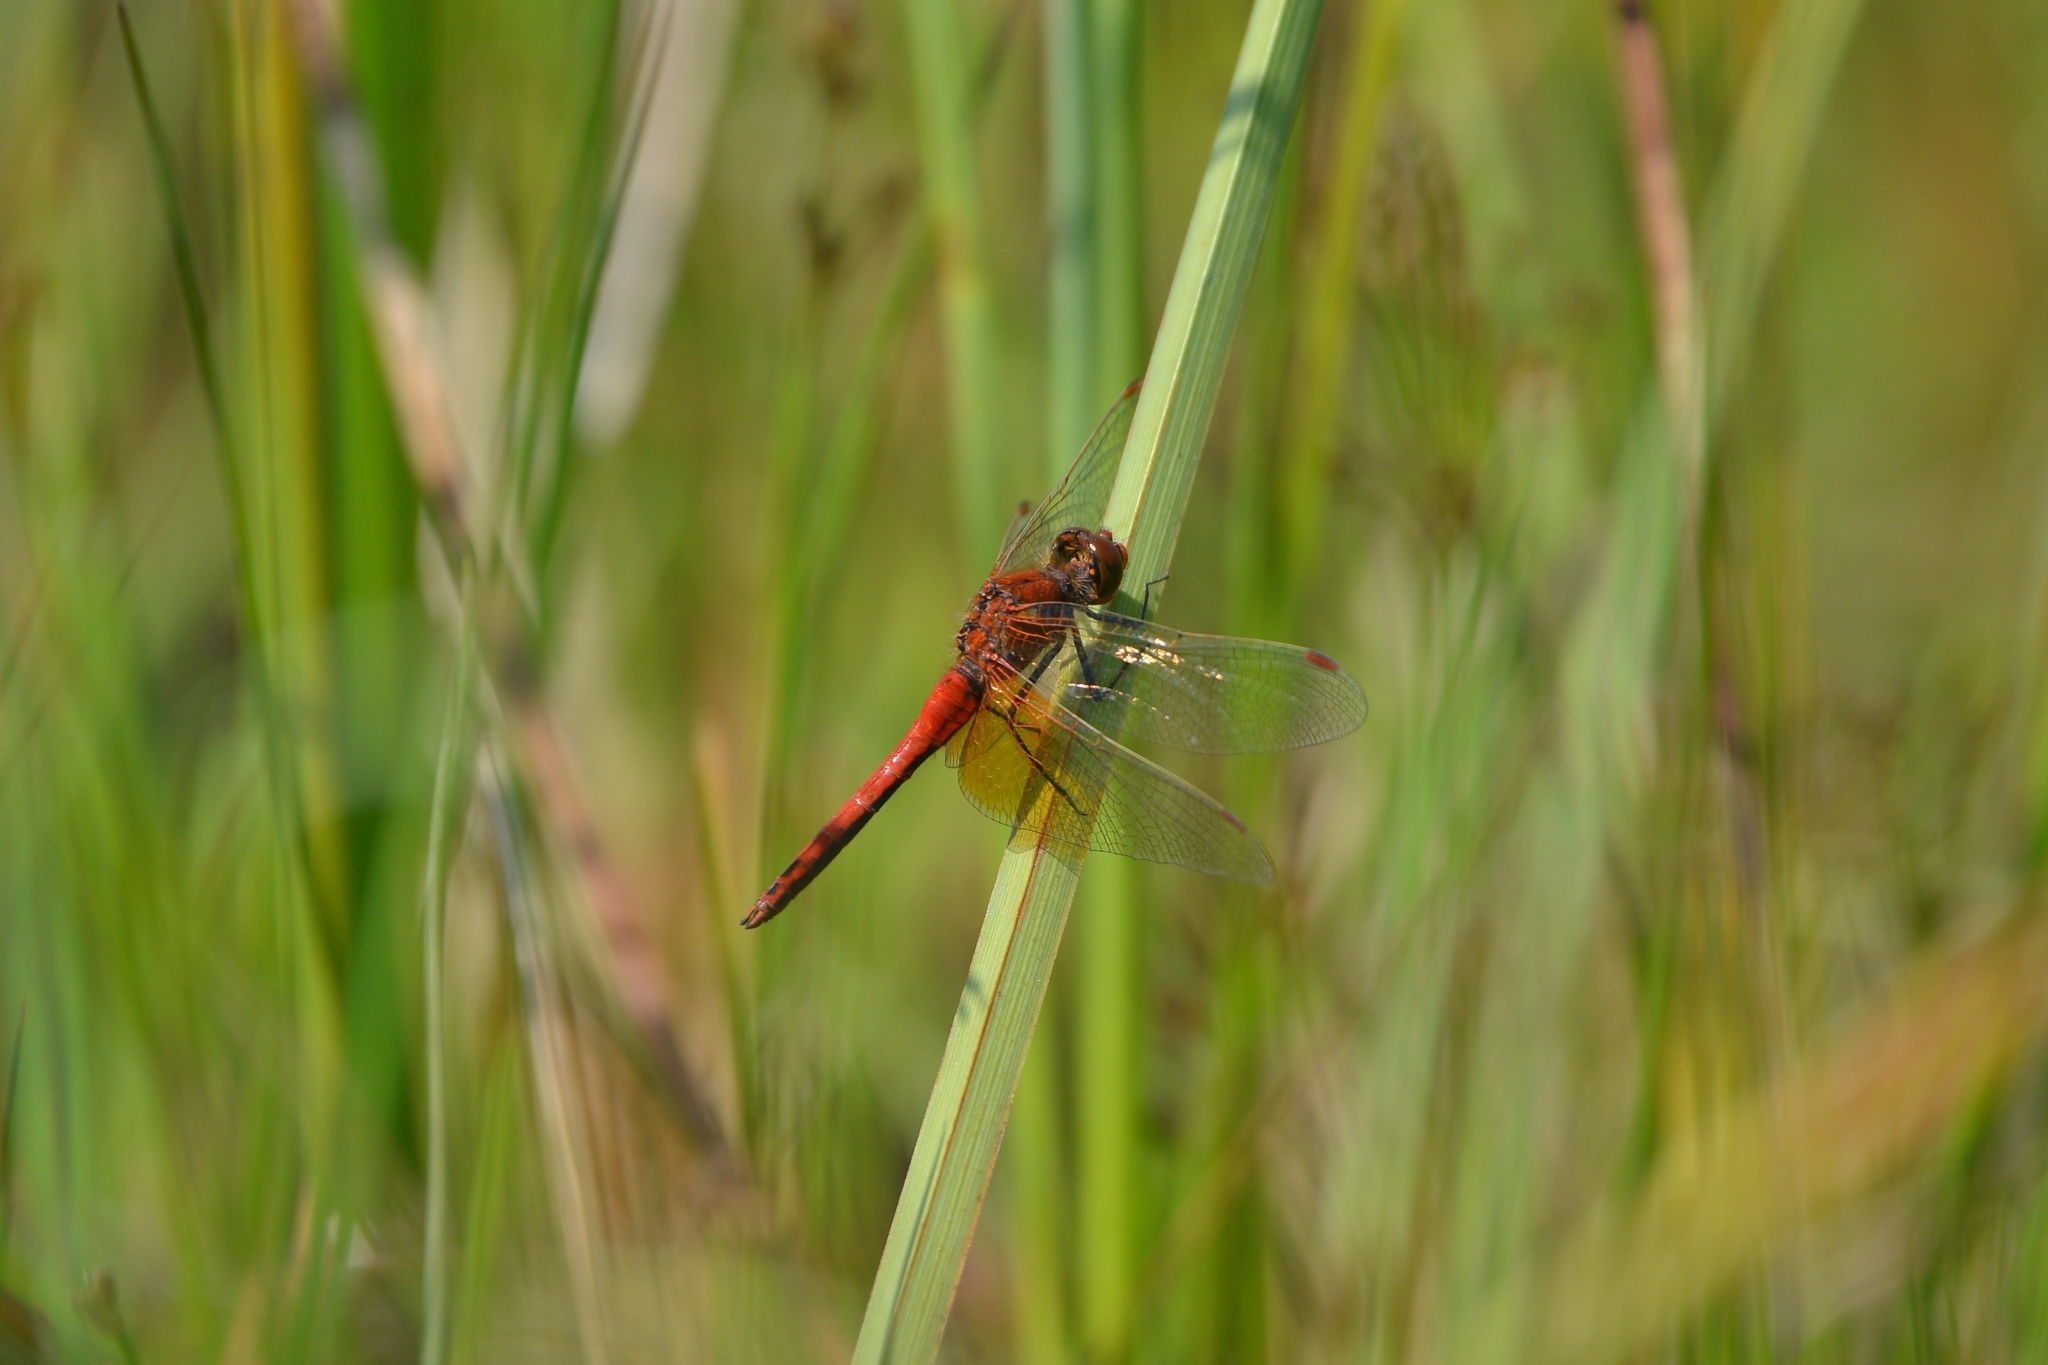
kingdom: Animalia
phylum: Arthropoda
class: Insecta
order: Odonata
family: Libellulidae
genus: Sympetrum
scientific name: Sympetrum flaveolum
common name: Yellow-winged darter
